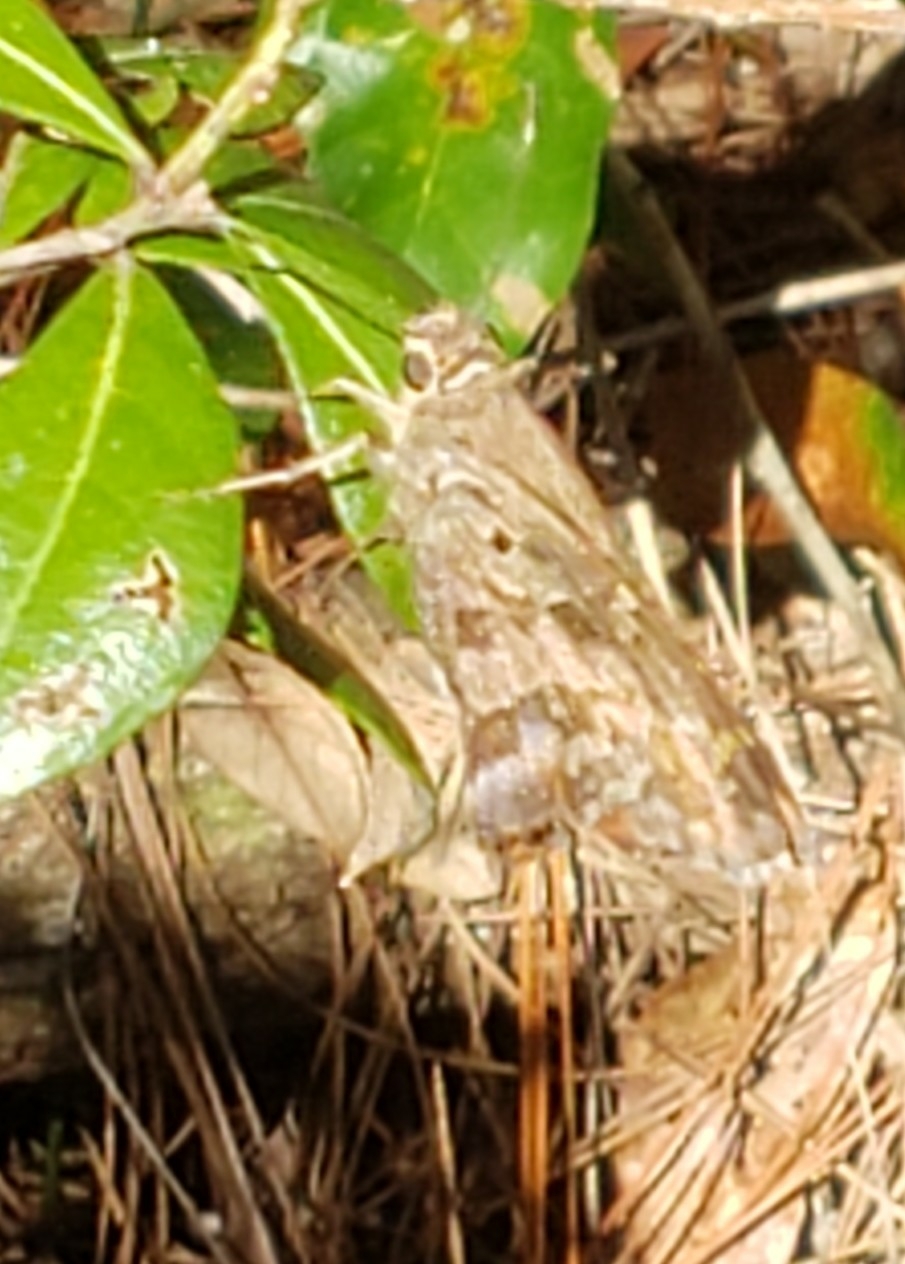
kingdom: Animalia
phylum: Arthropoda
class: Insecta
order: Lepidoptera
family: Hesperiidae
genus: Thorybes
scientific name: Thorybes
